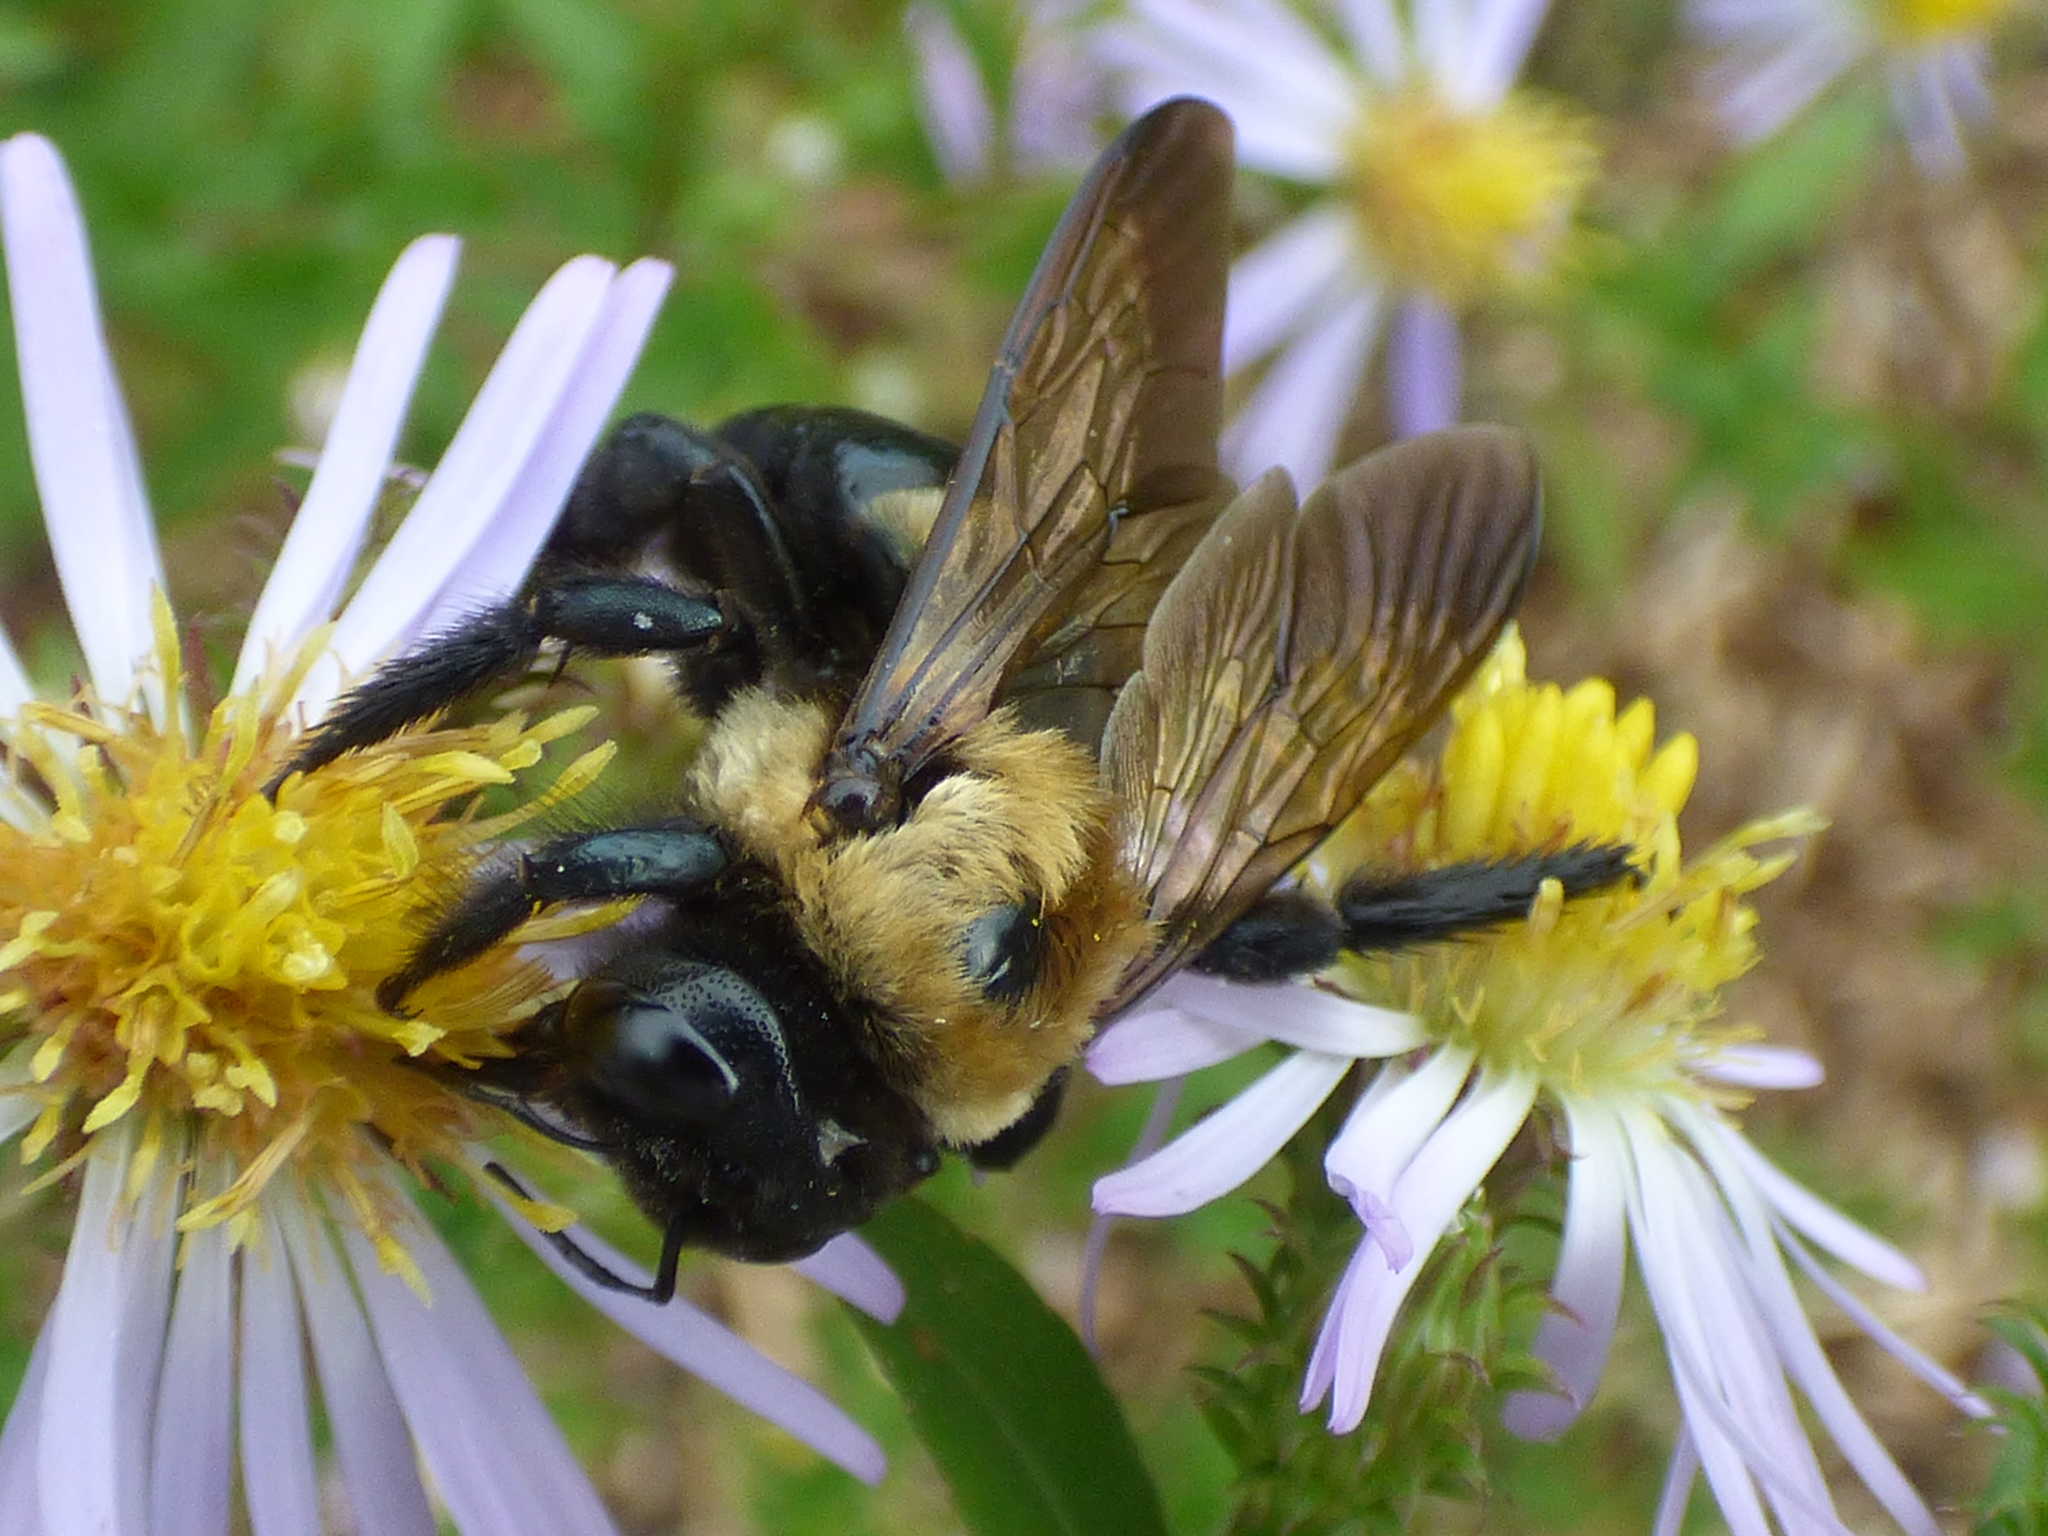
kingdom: Animalia
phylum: Arthropoda
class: Insecta
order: Hymenoptera
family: Apidae
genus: Xylocopa
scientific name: Xylocopa virginica
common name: Carpenter bee
